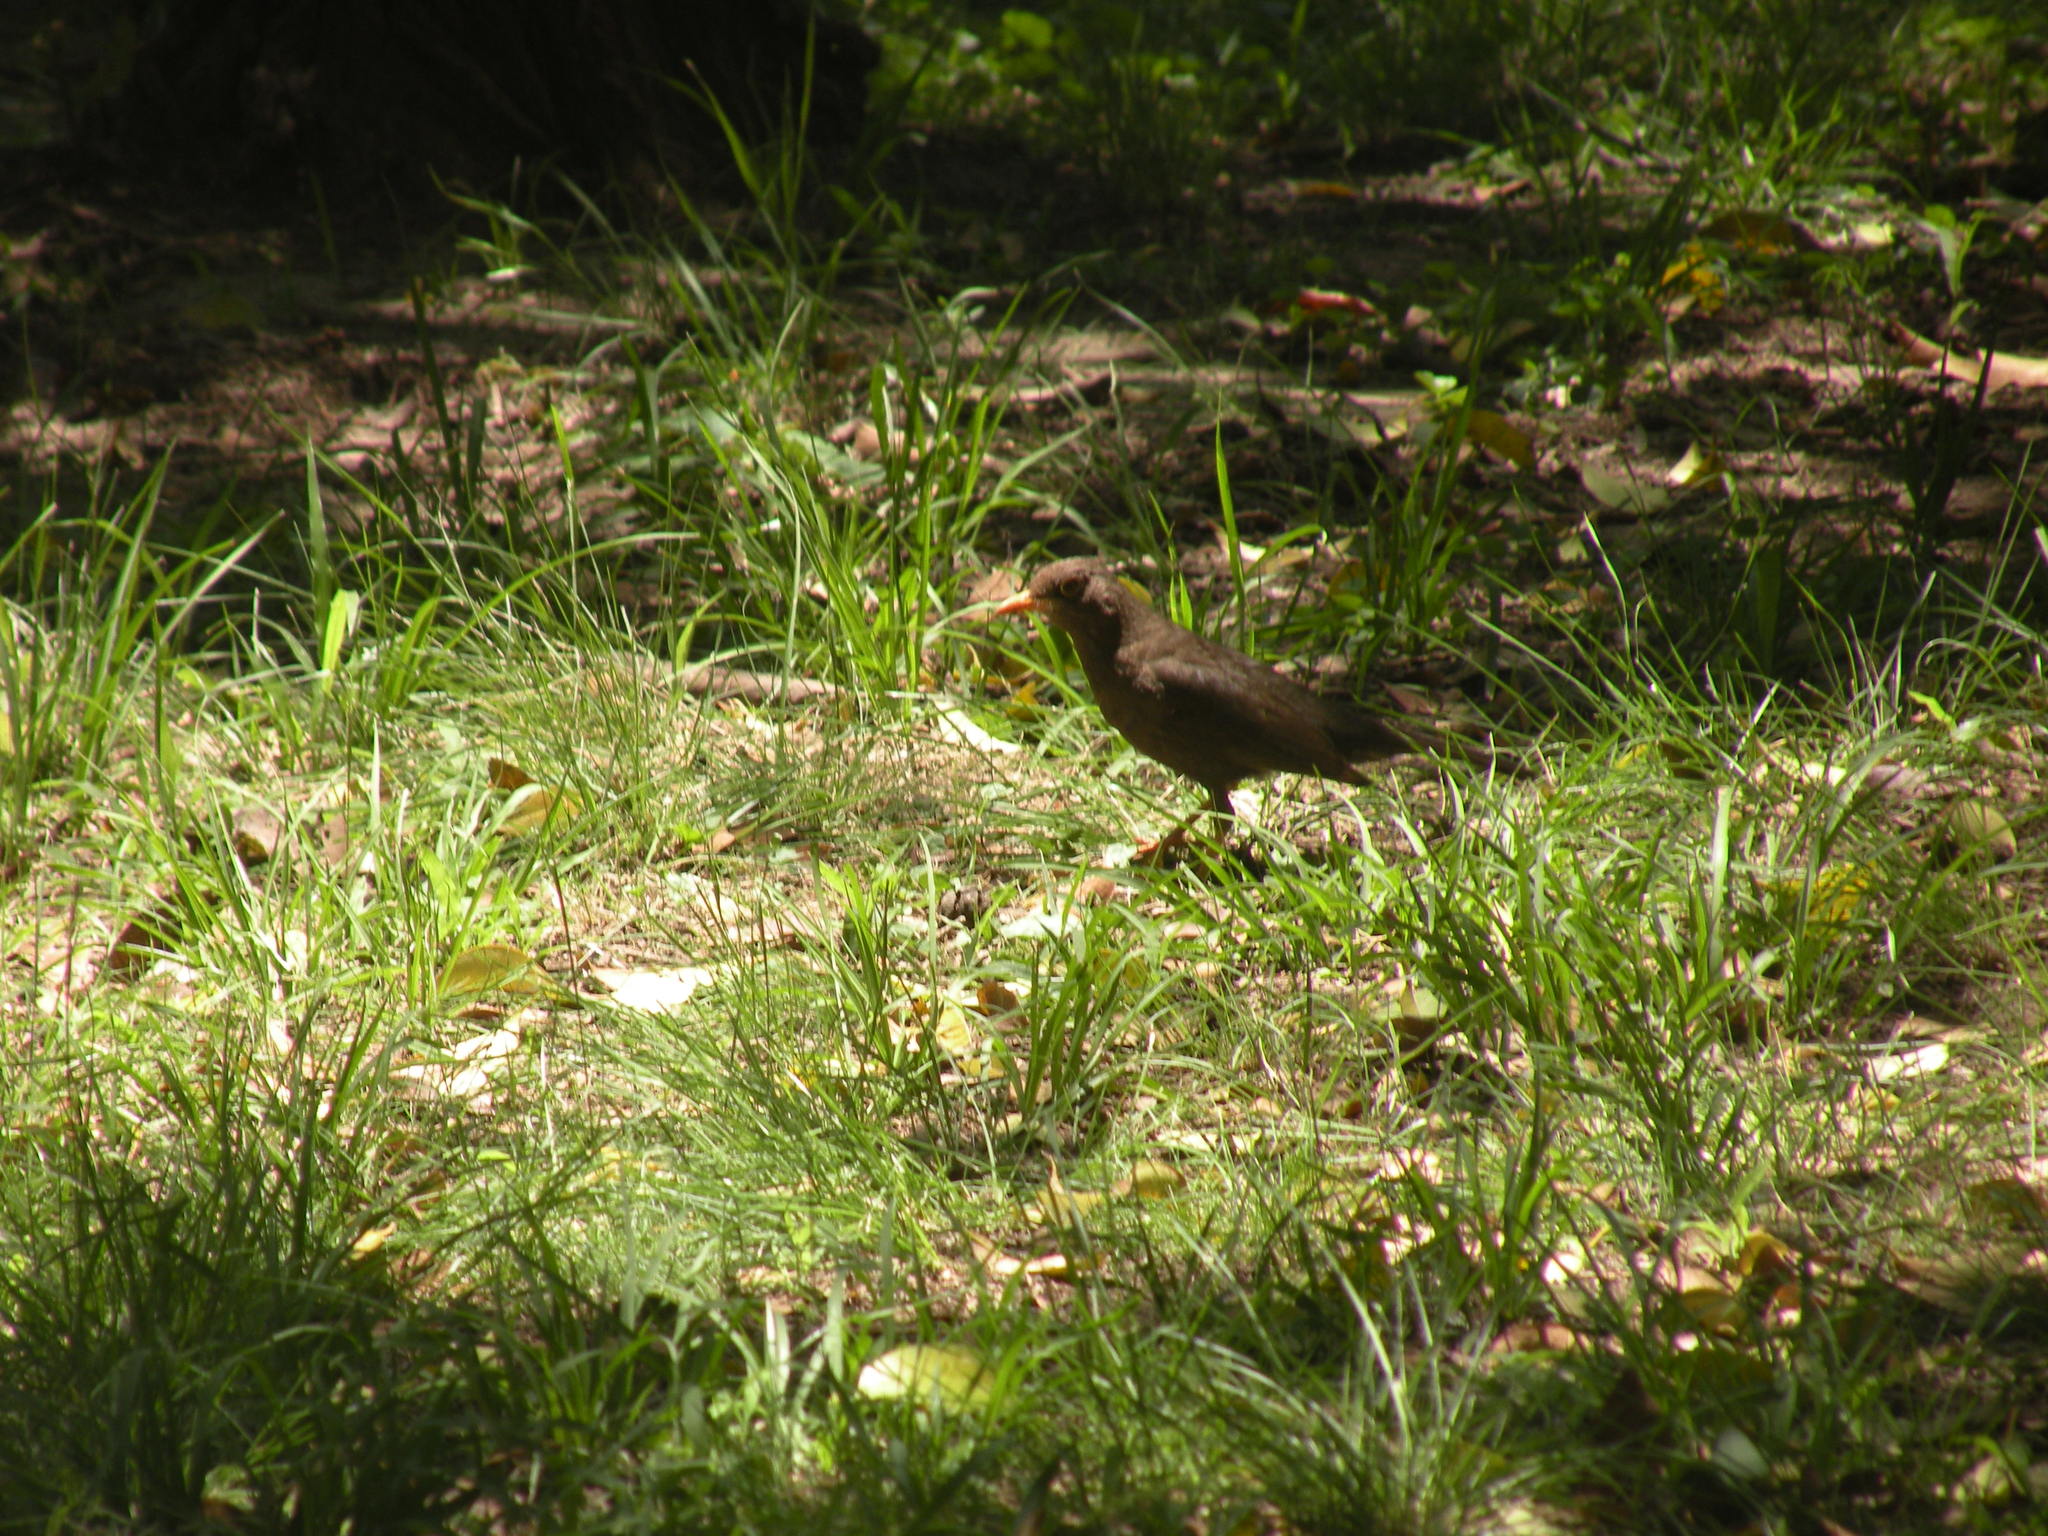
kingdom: Animalia
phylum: Chordata
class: Aves
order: Passeriformes
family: Turdidae
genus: Turdus
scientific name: Turdus chiguanco
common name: Chiguanco thrush
